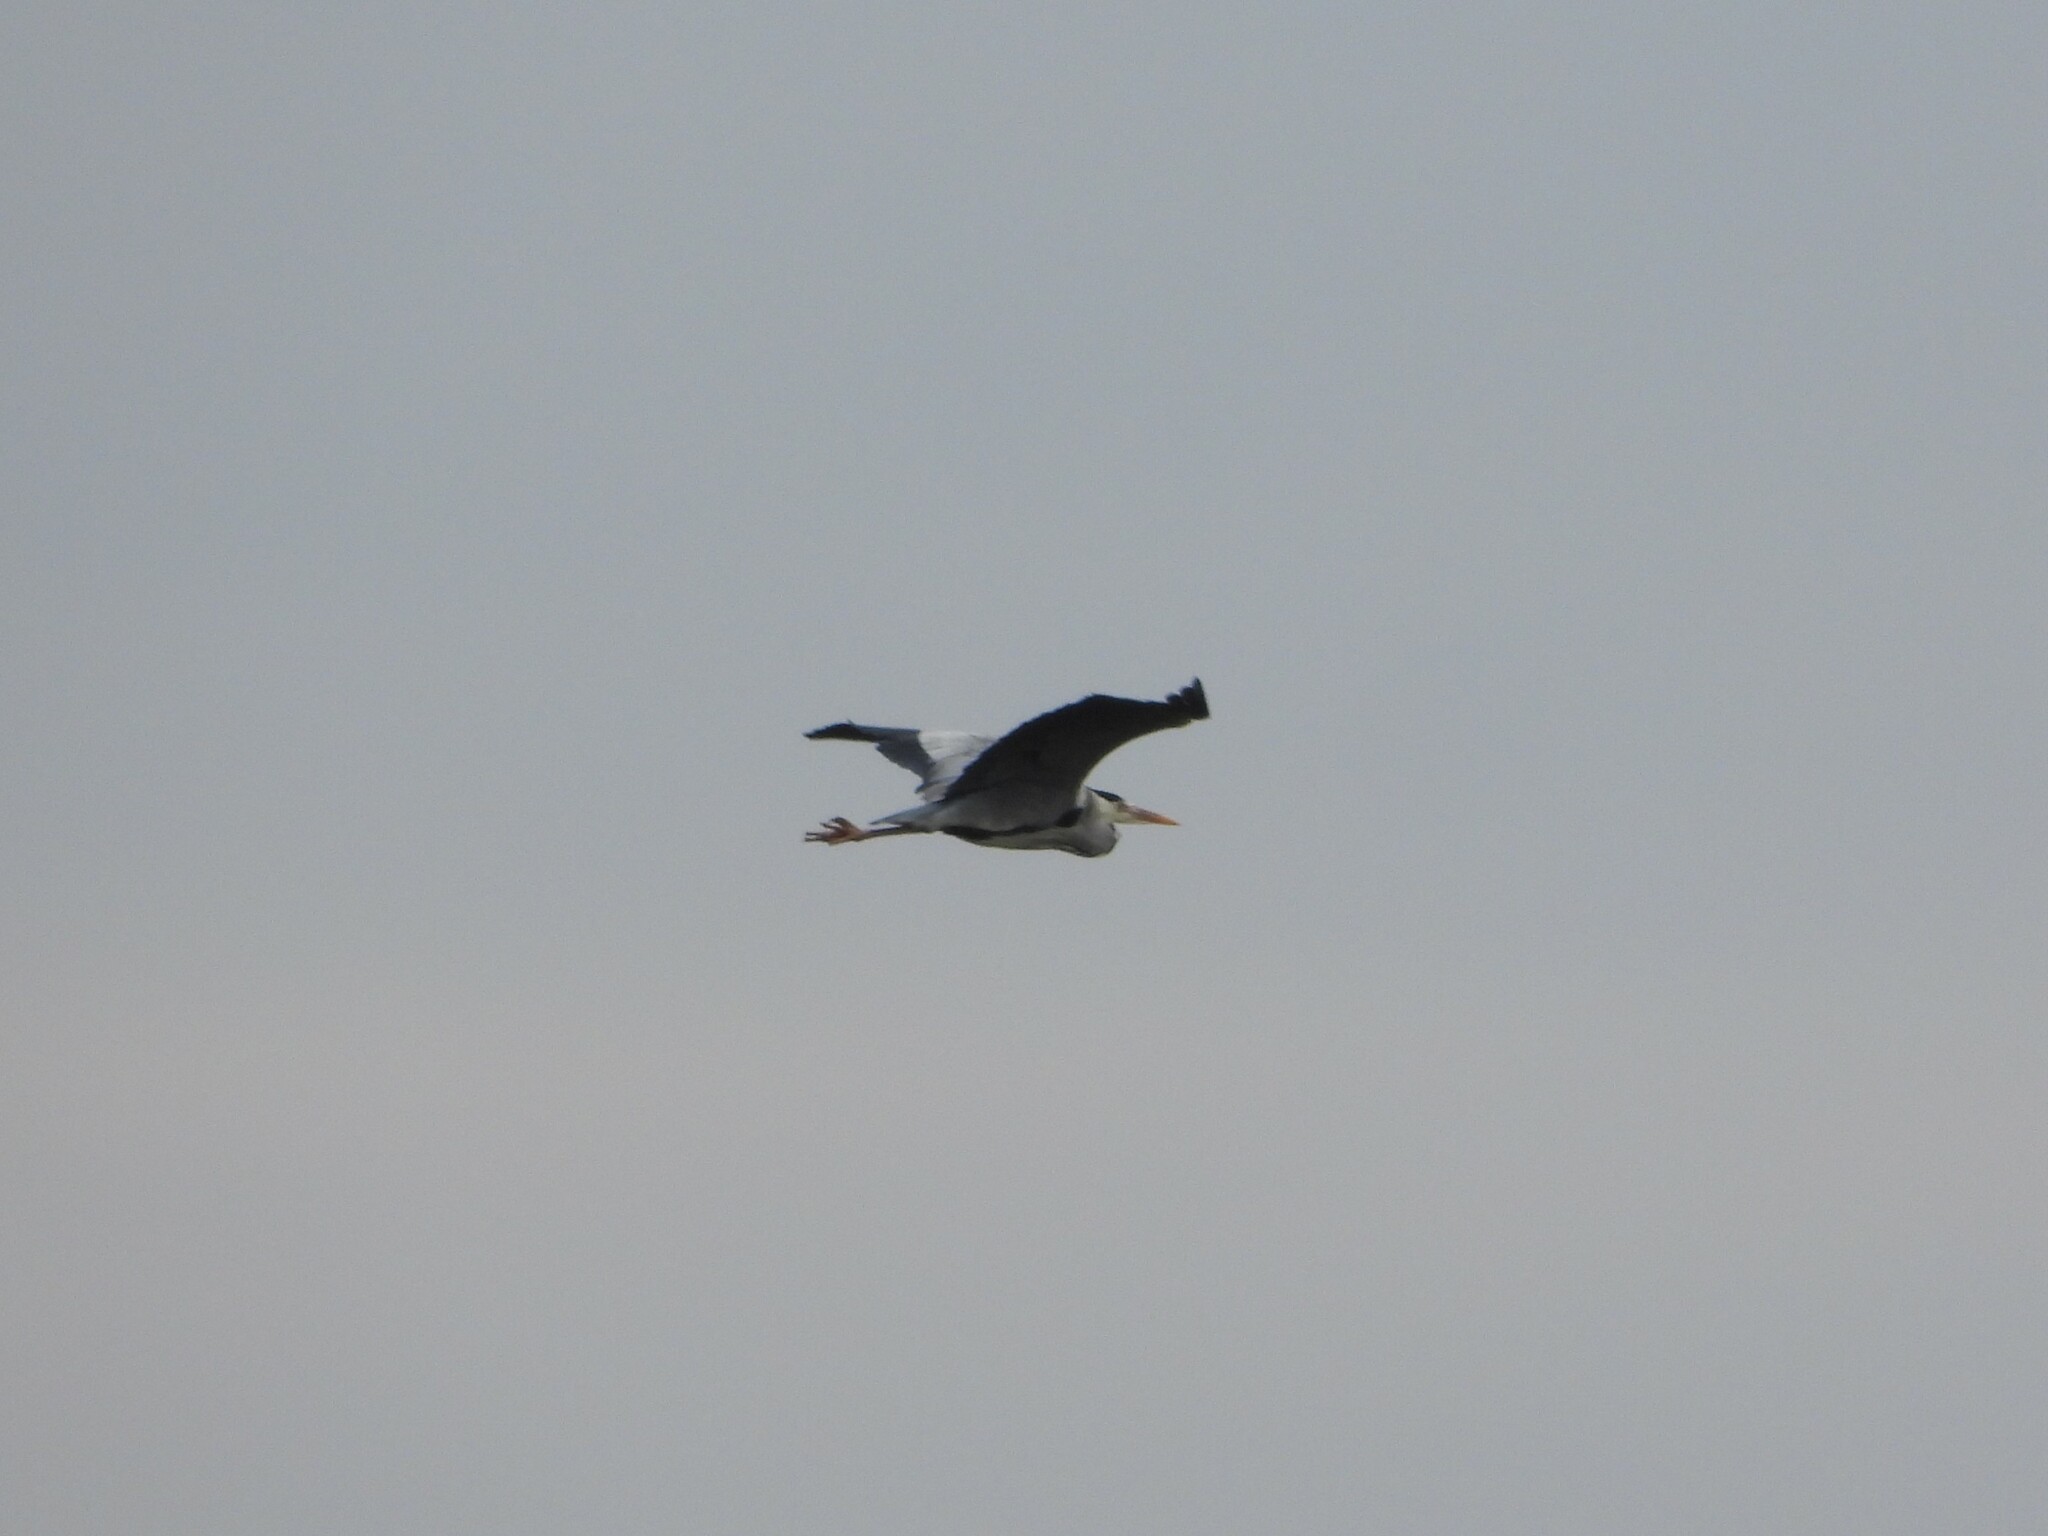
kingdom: Animalia
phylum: Chordata
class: Aves
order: Pelecaniformes
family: Ardeidae
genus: Ardea
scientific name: Ardea cinerea
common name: Grey heron
